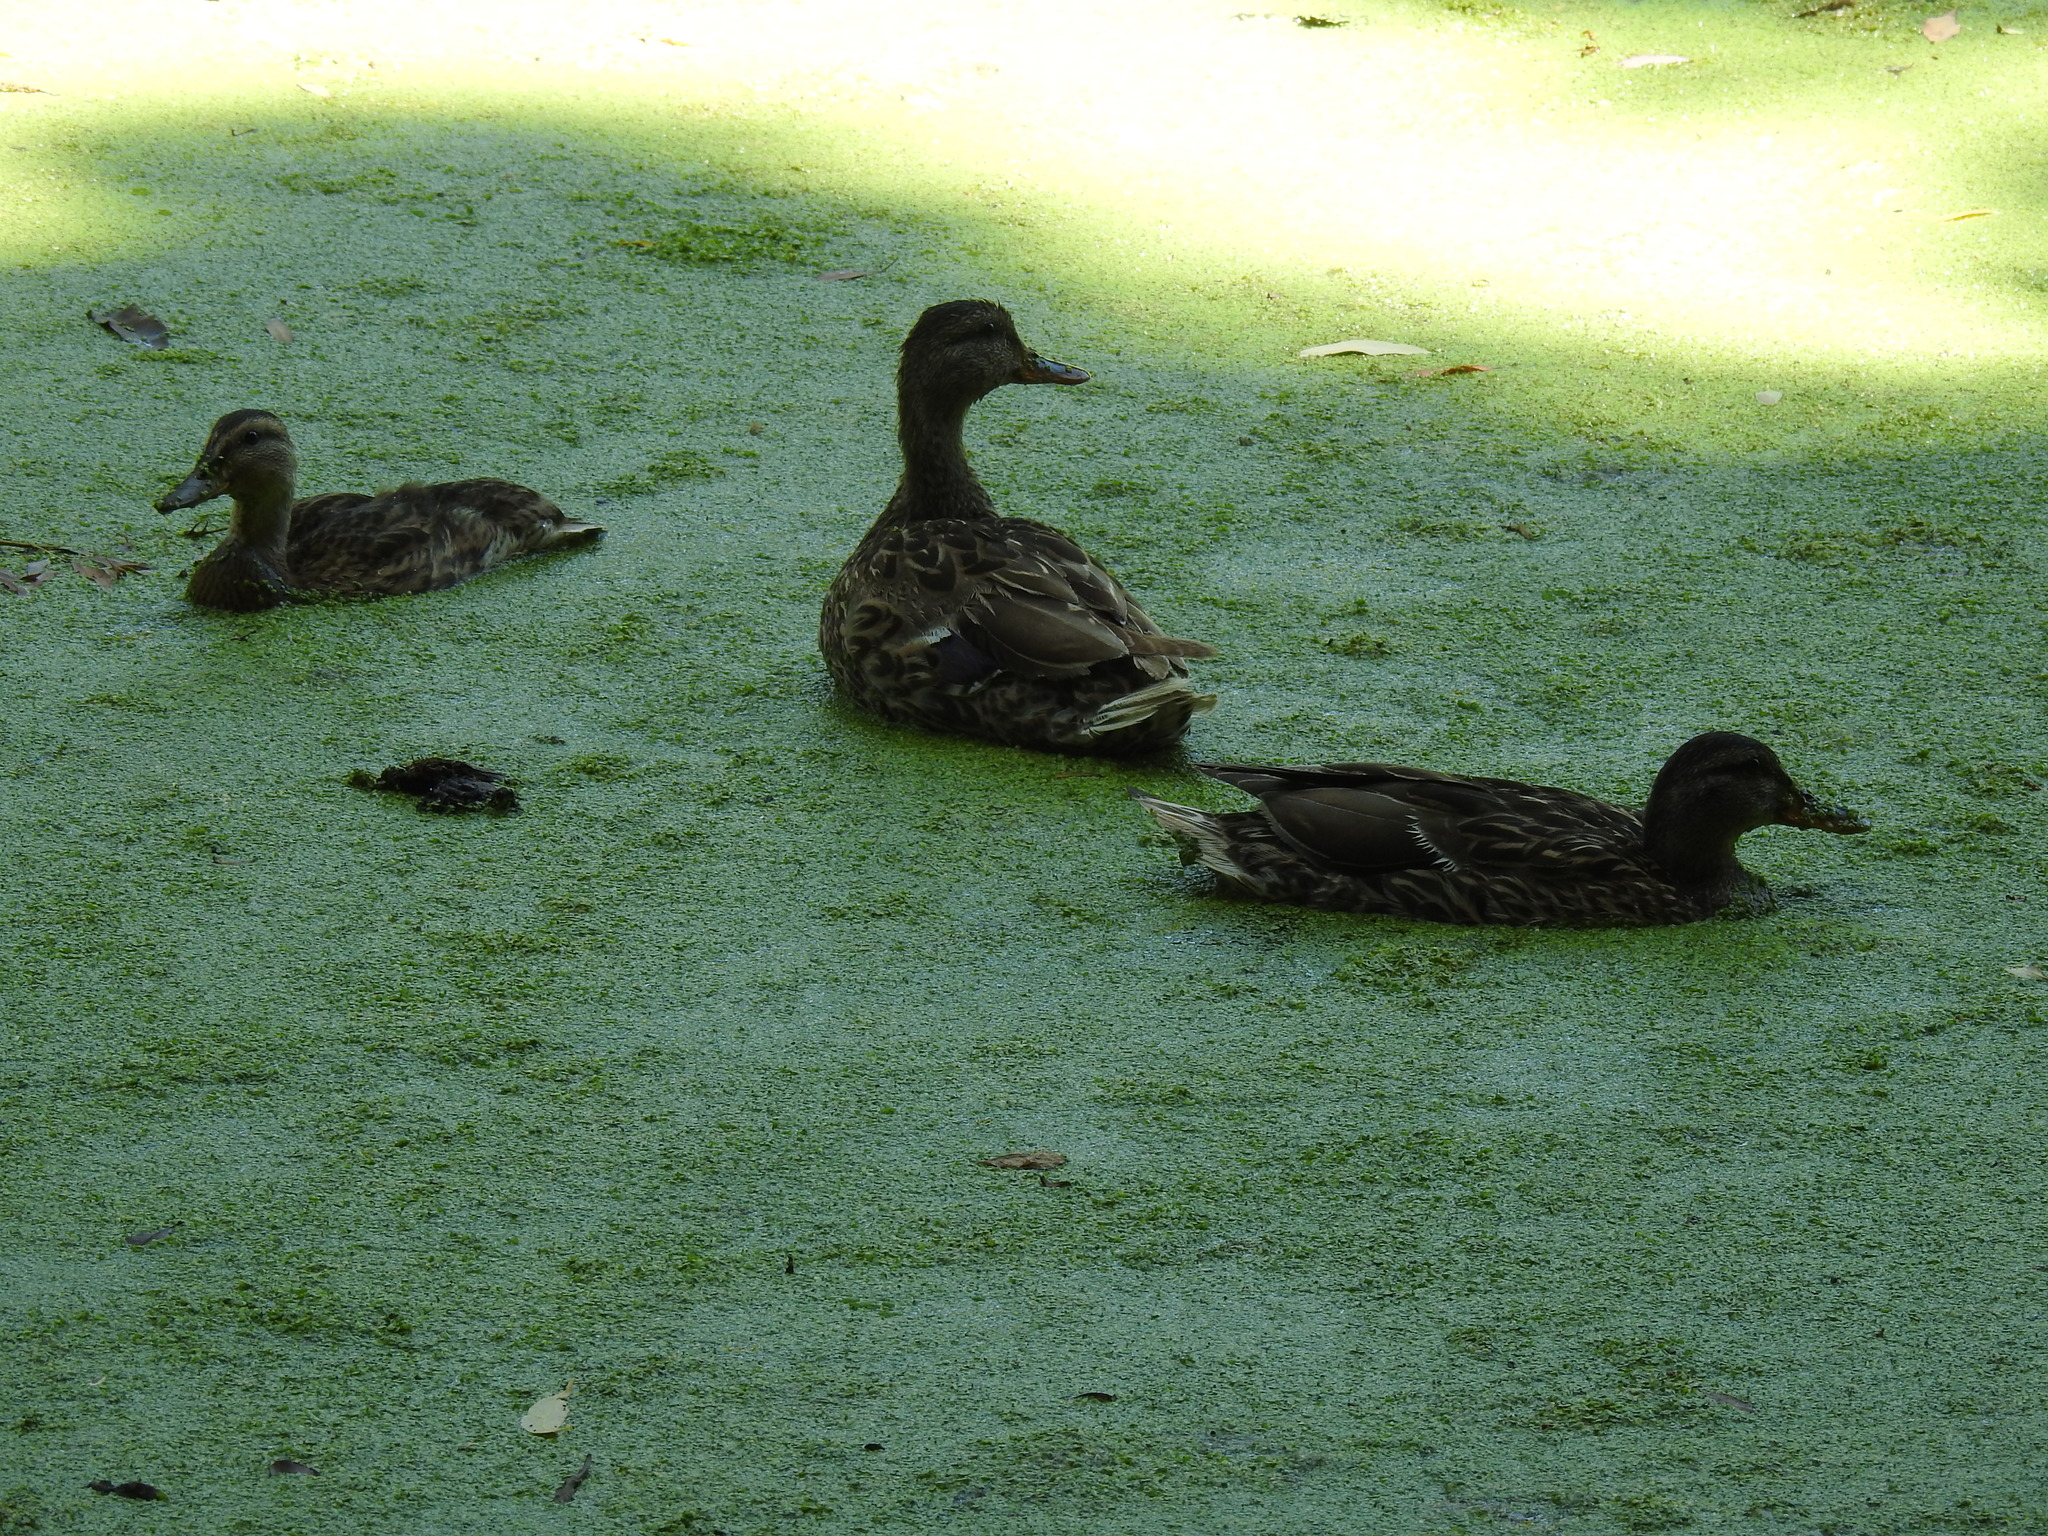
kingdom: Animalia
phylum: Chordata
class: Aves
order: Anseriformes
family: Anatidae
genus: Anas
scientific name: Anas platyrhynchos
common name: Mallard
